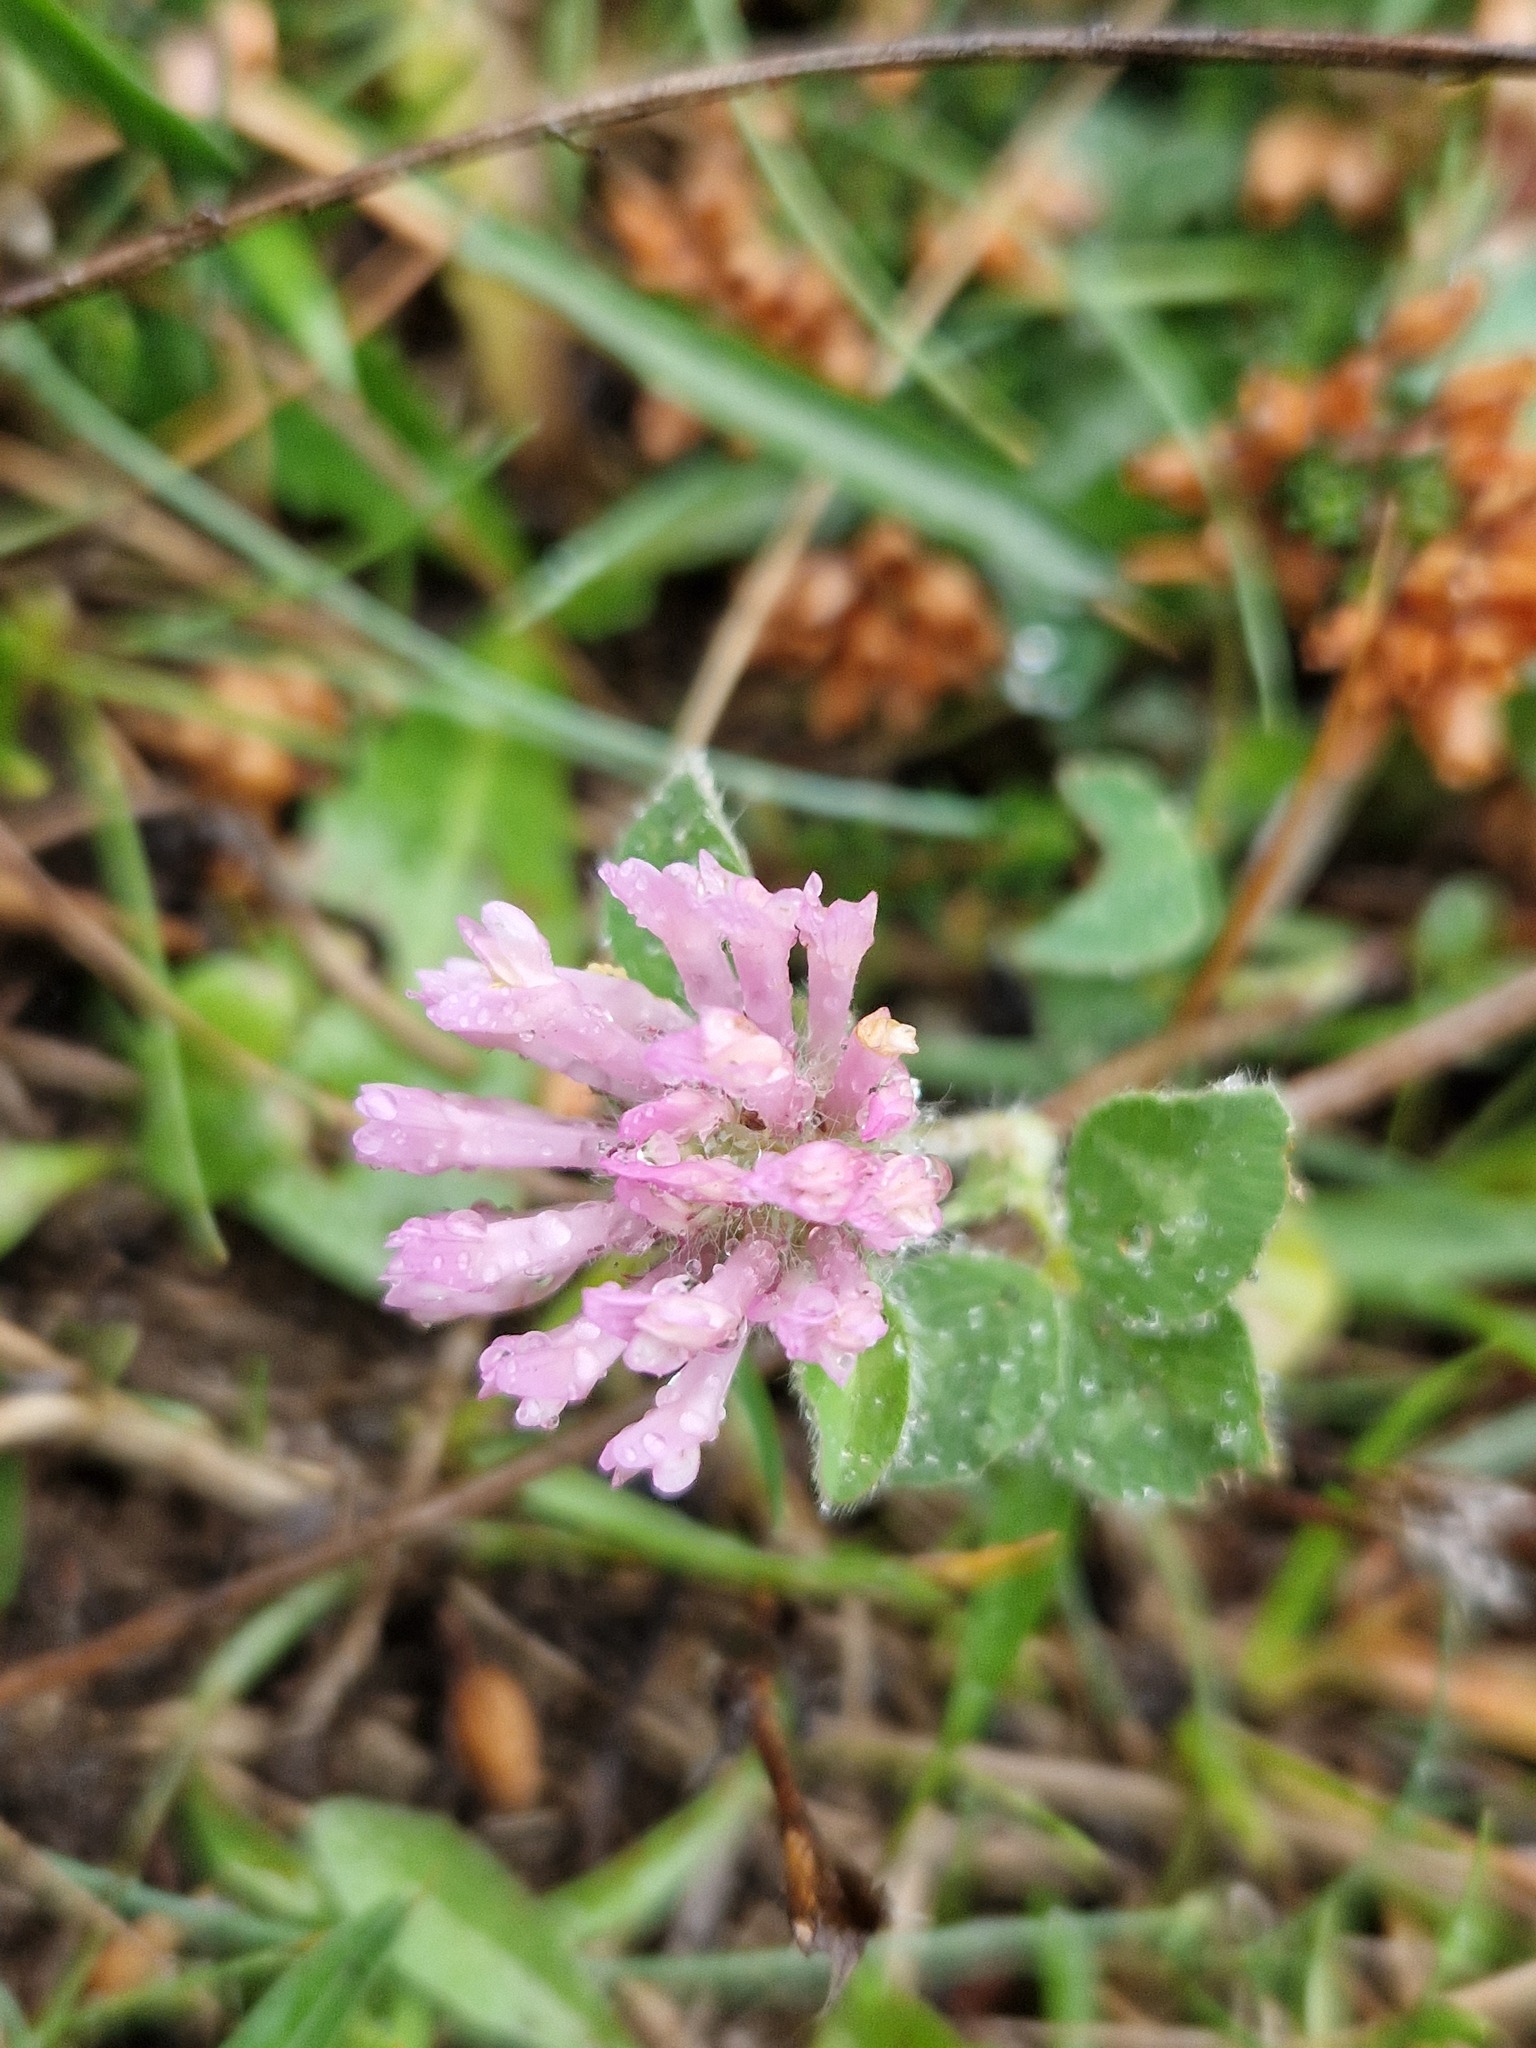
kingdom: Plantae
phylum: Tracheophyta
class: Magnoliopsida
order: Fabales
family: Fabaceae
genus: Trifolium
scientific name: Trifolium pratense
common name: Red clover
